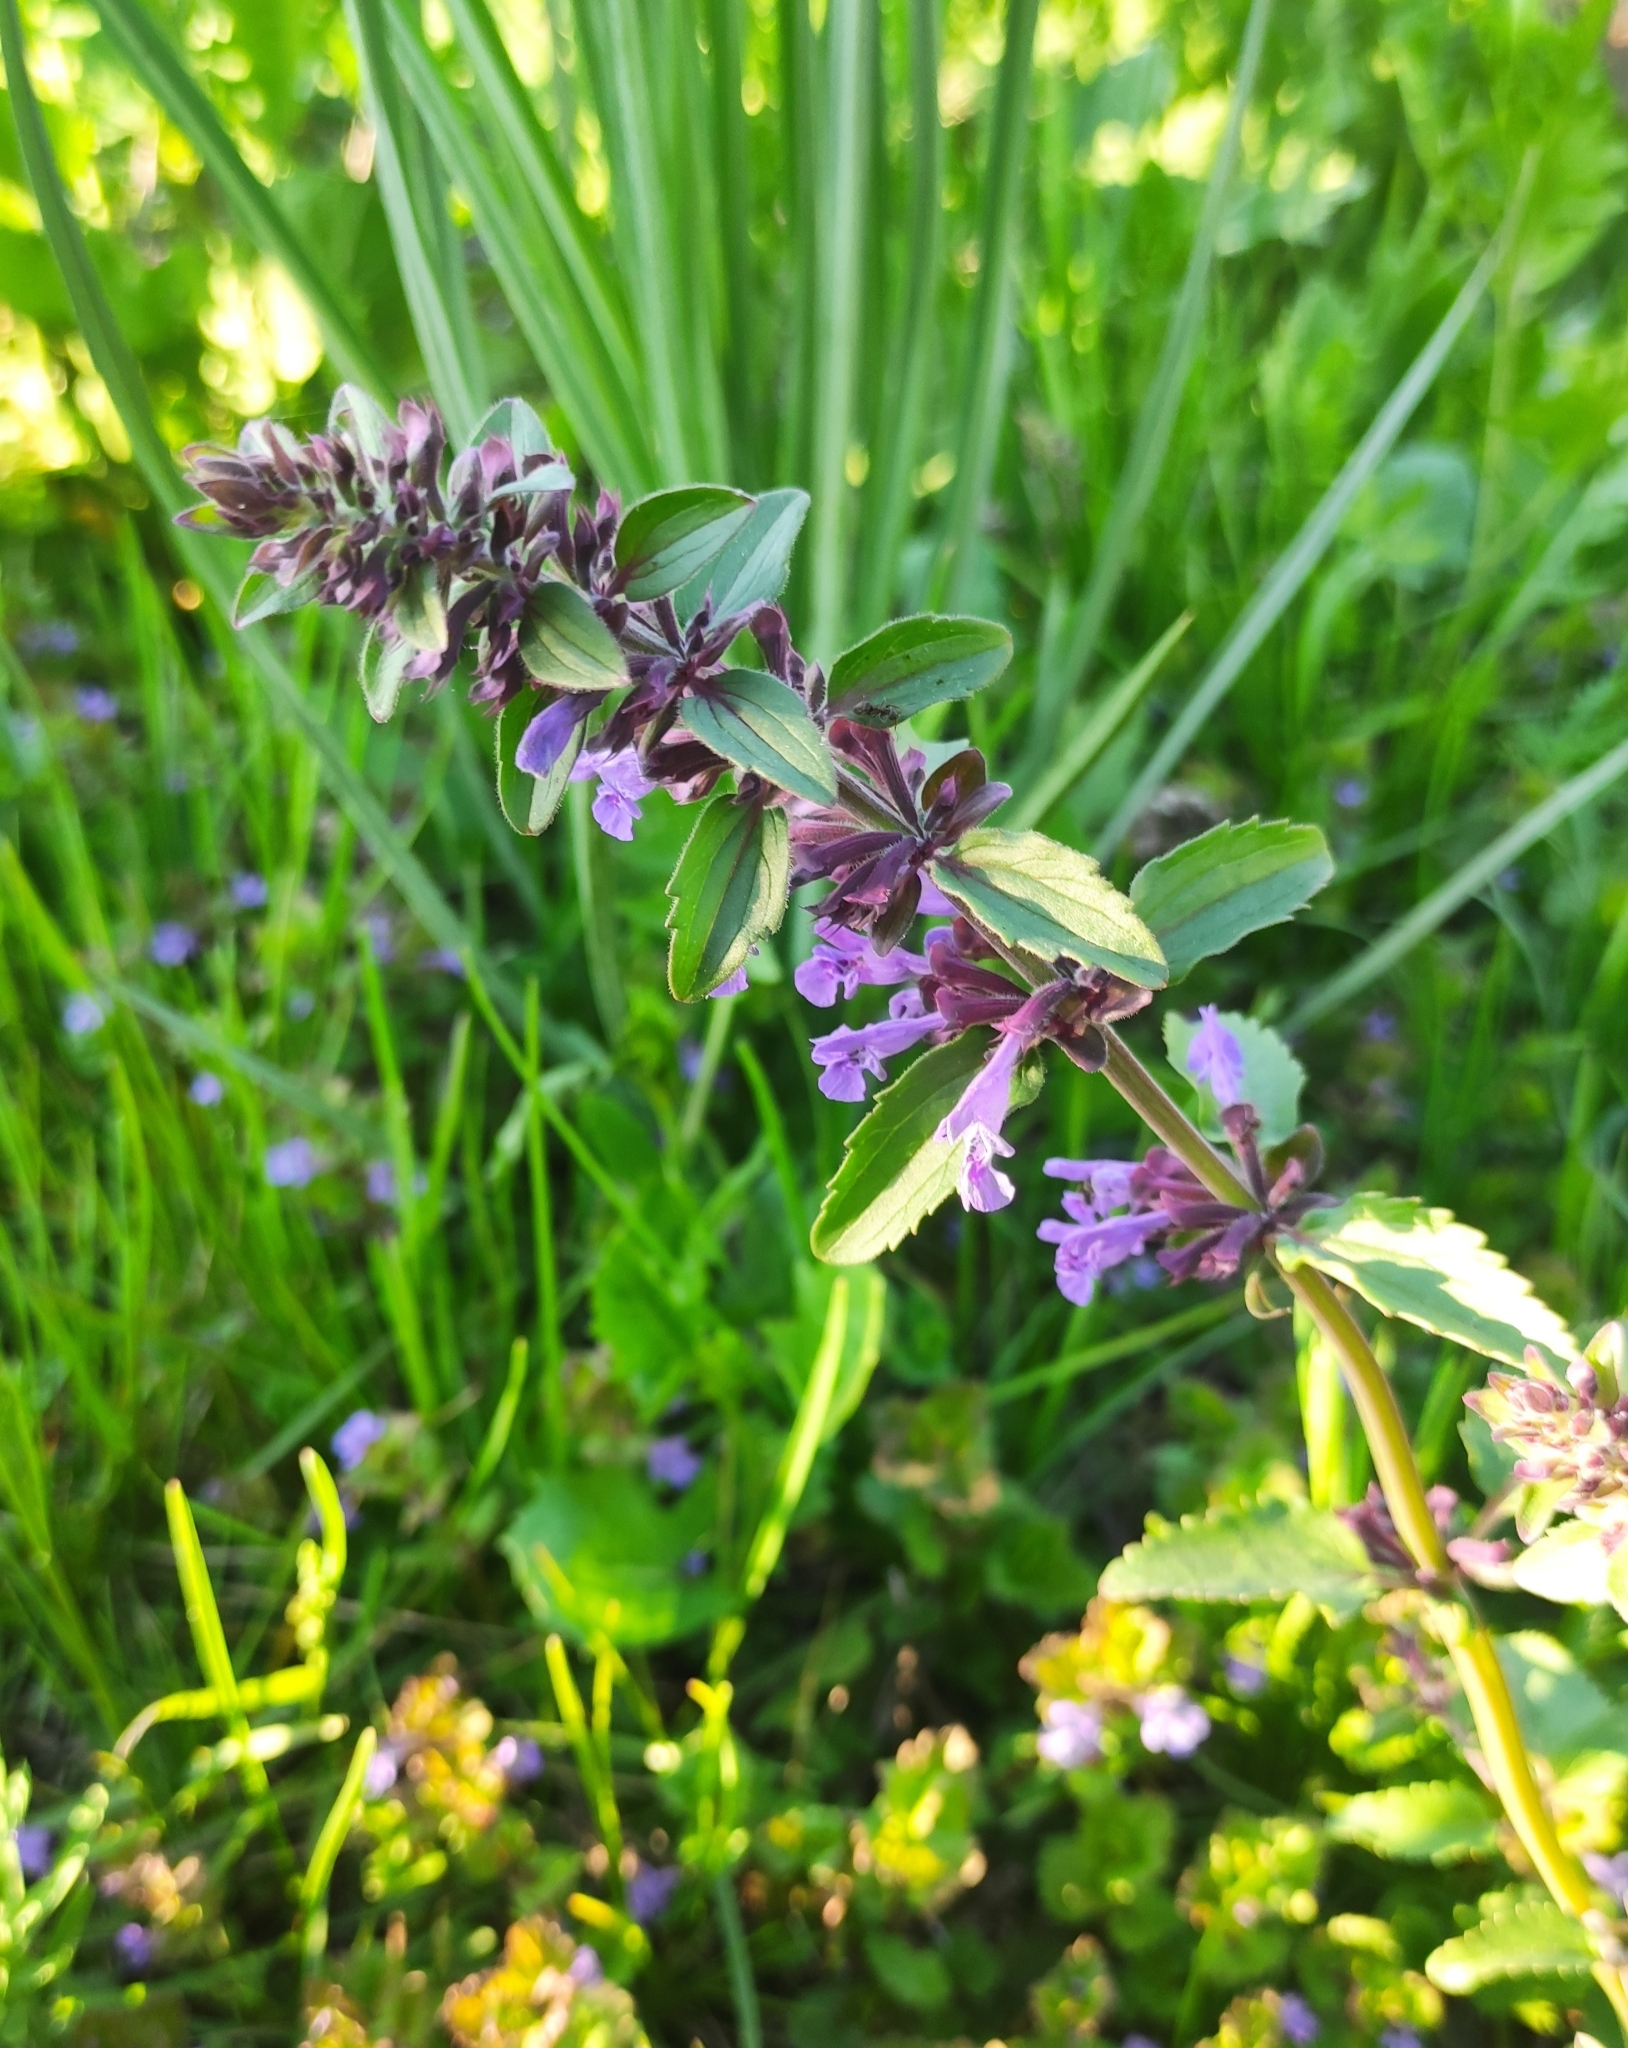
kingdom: Plantae
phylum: Tracheophyta
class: Magnoliopsida
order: Lamiales
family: Lamiaceae
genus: Dracocephalum
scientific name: Dracocephalum nutans
